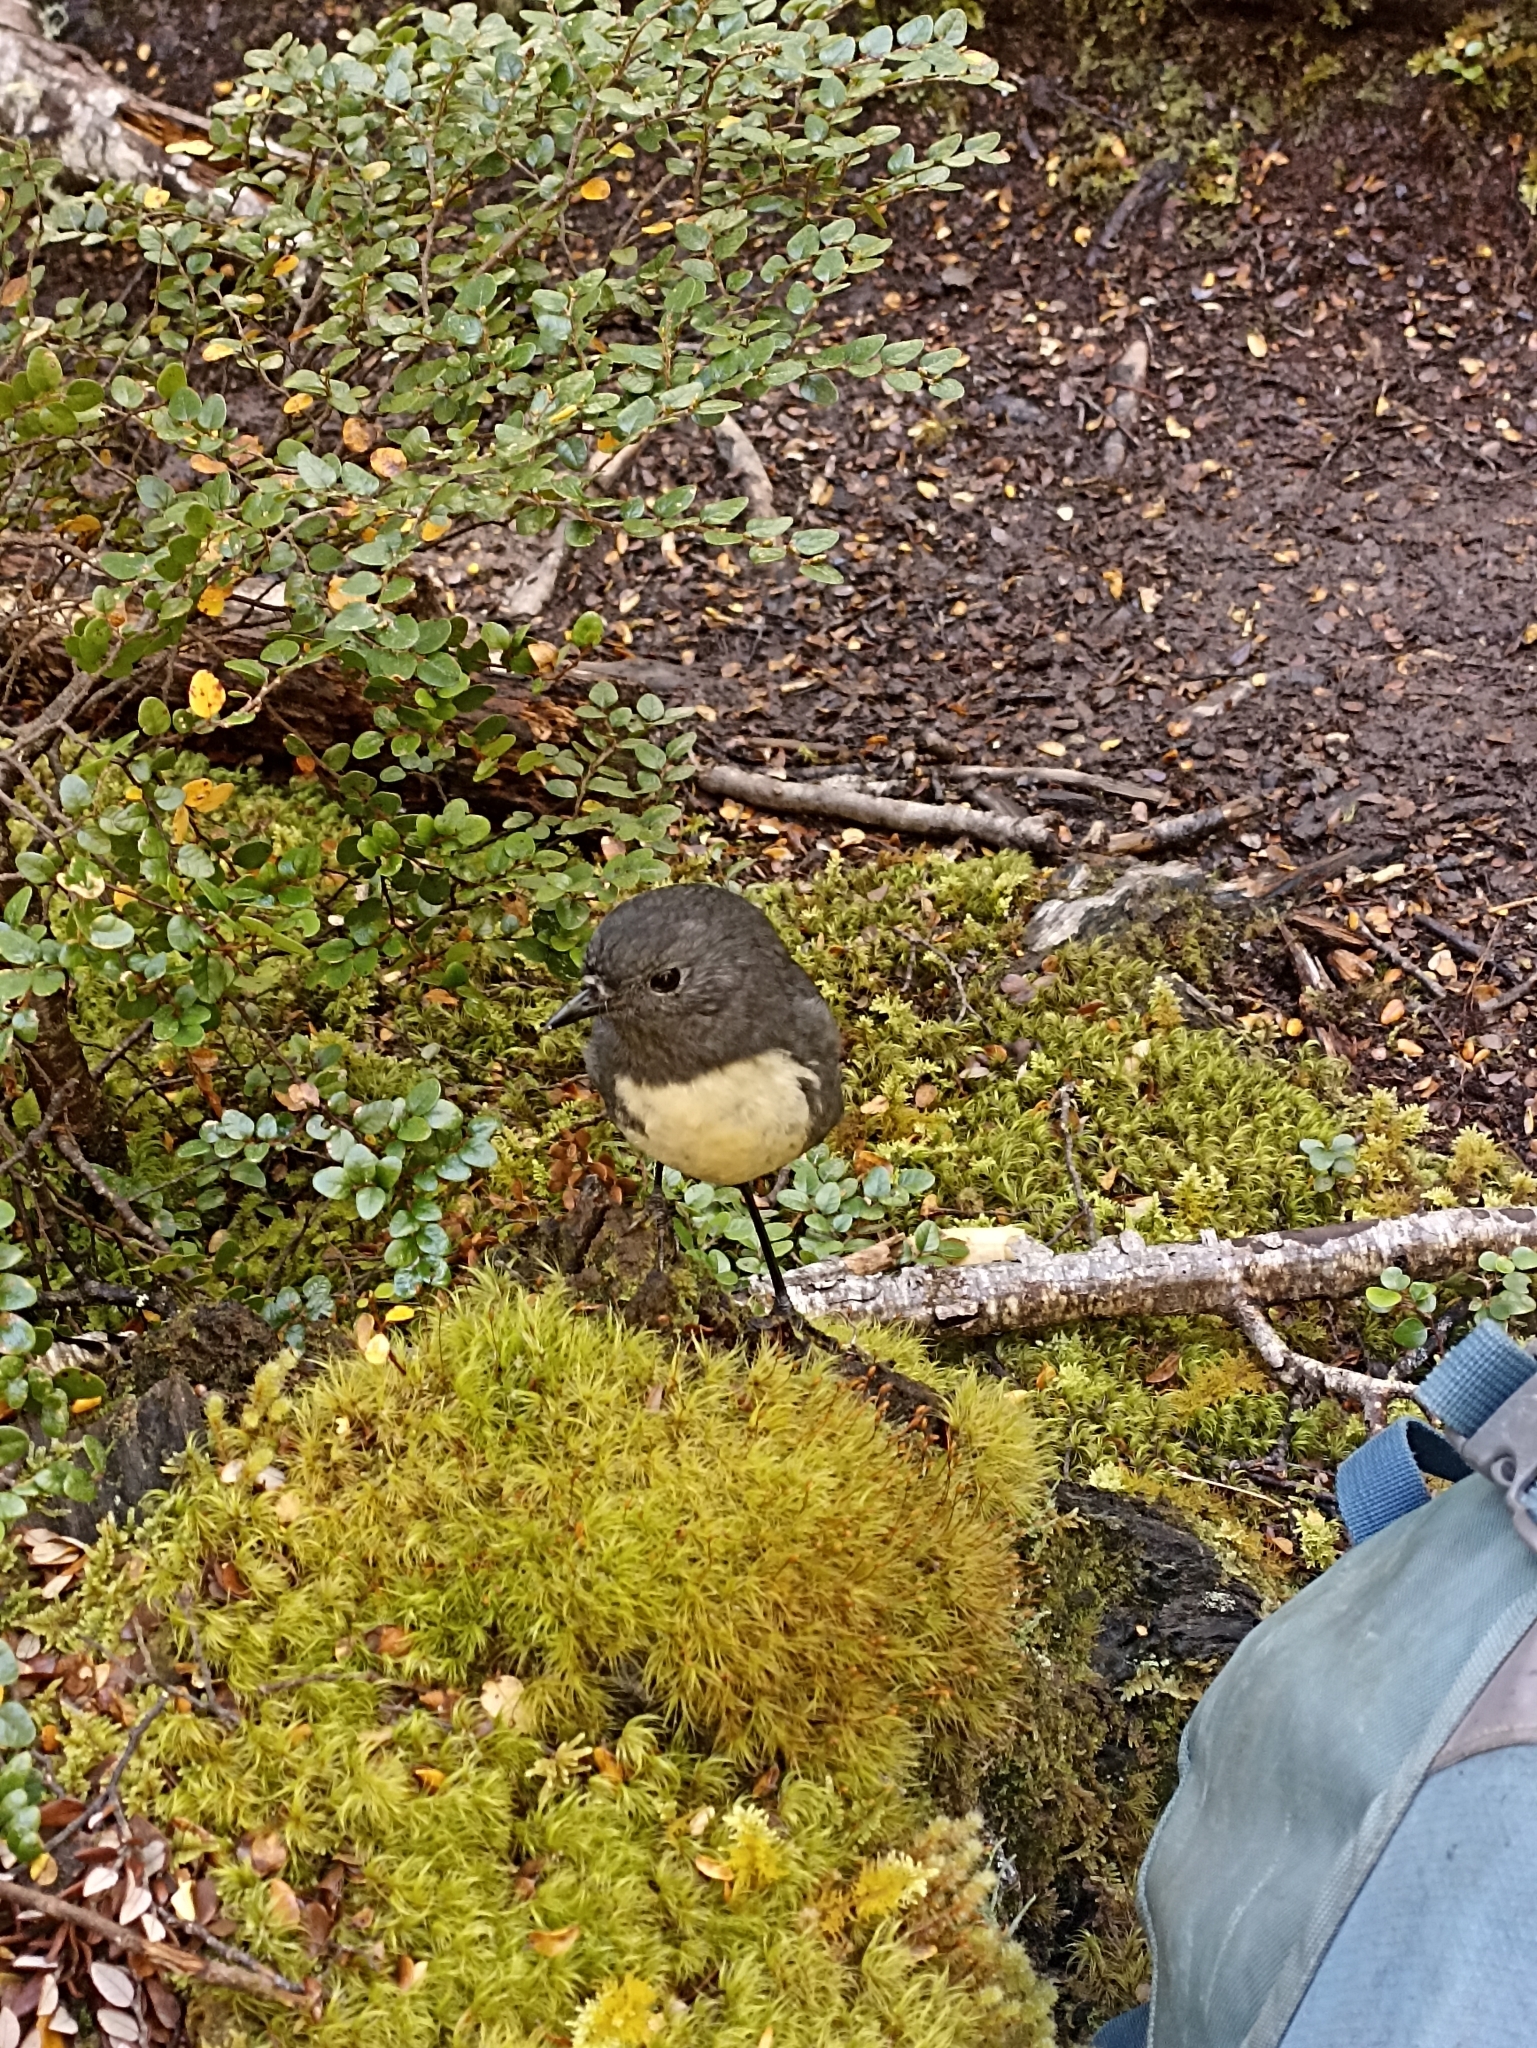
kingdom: Animalia
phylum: Chordata
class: Aves
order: Passeriformes
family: Petroicidae
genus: Petroica
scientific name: Petroica australis
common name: New zealand robin
